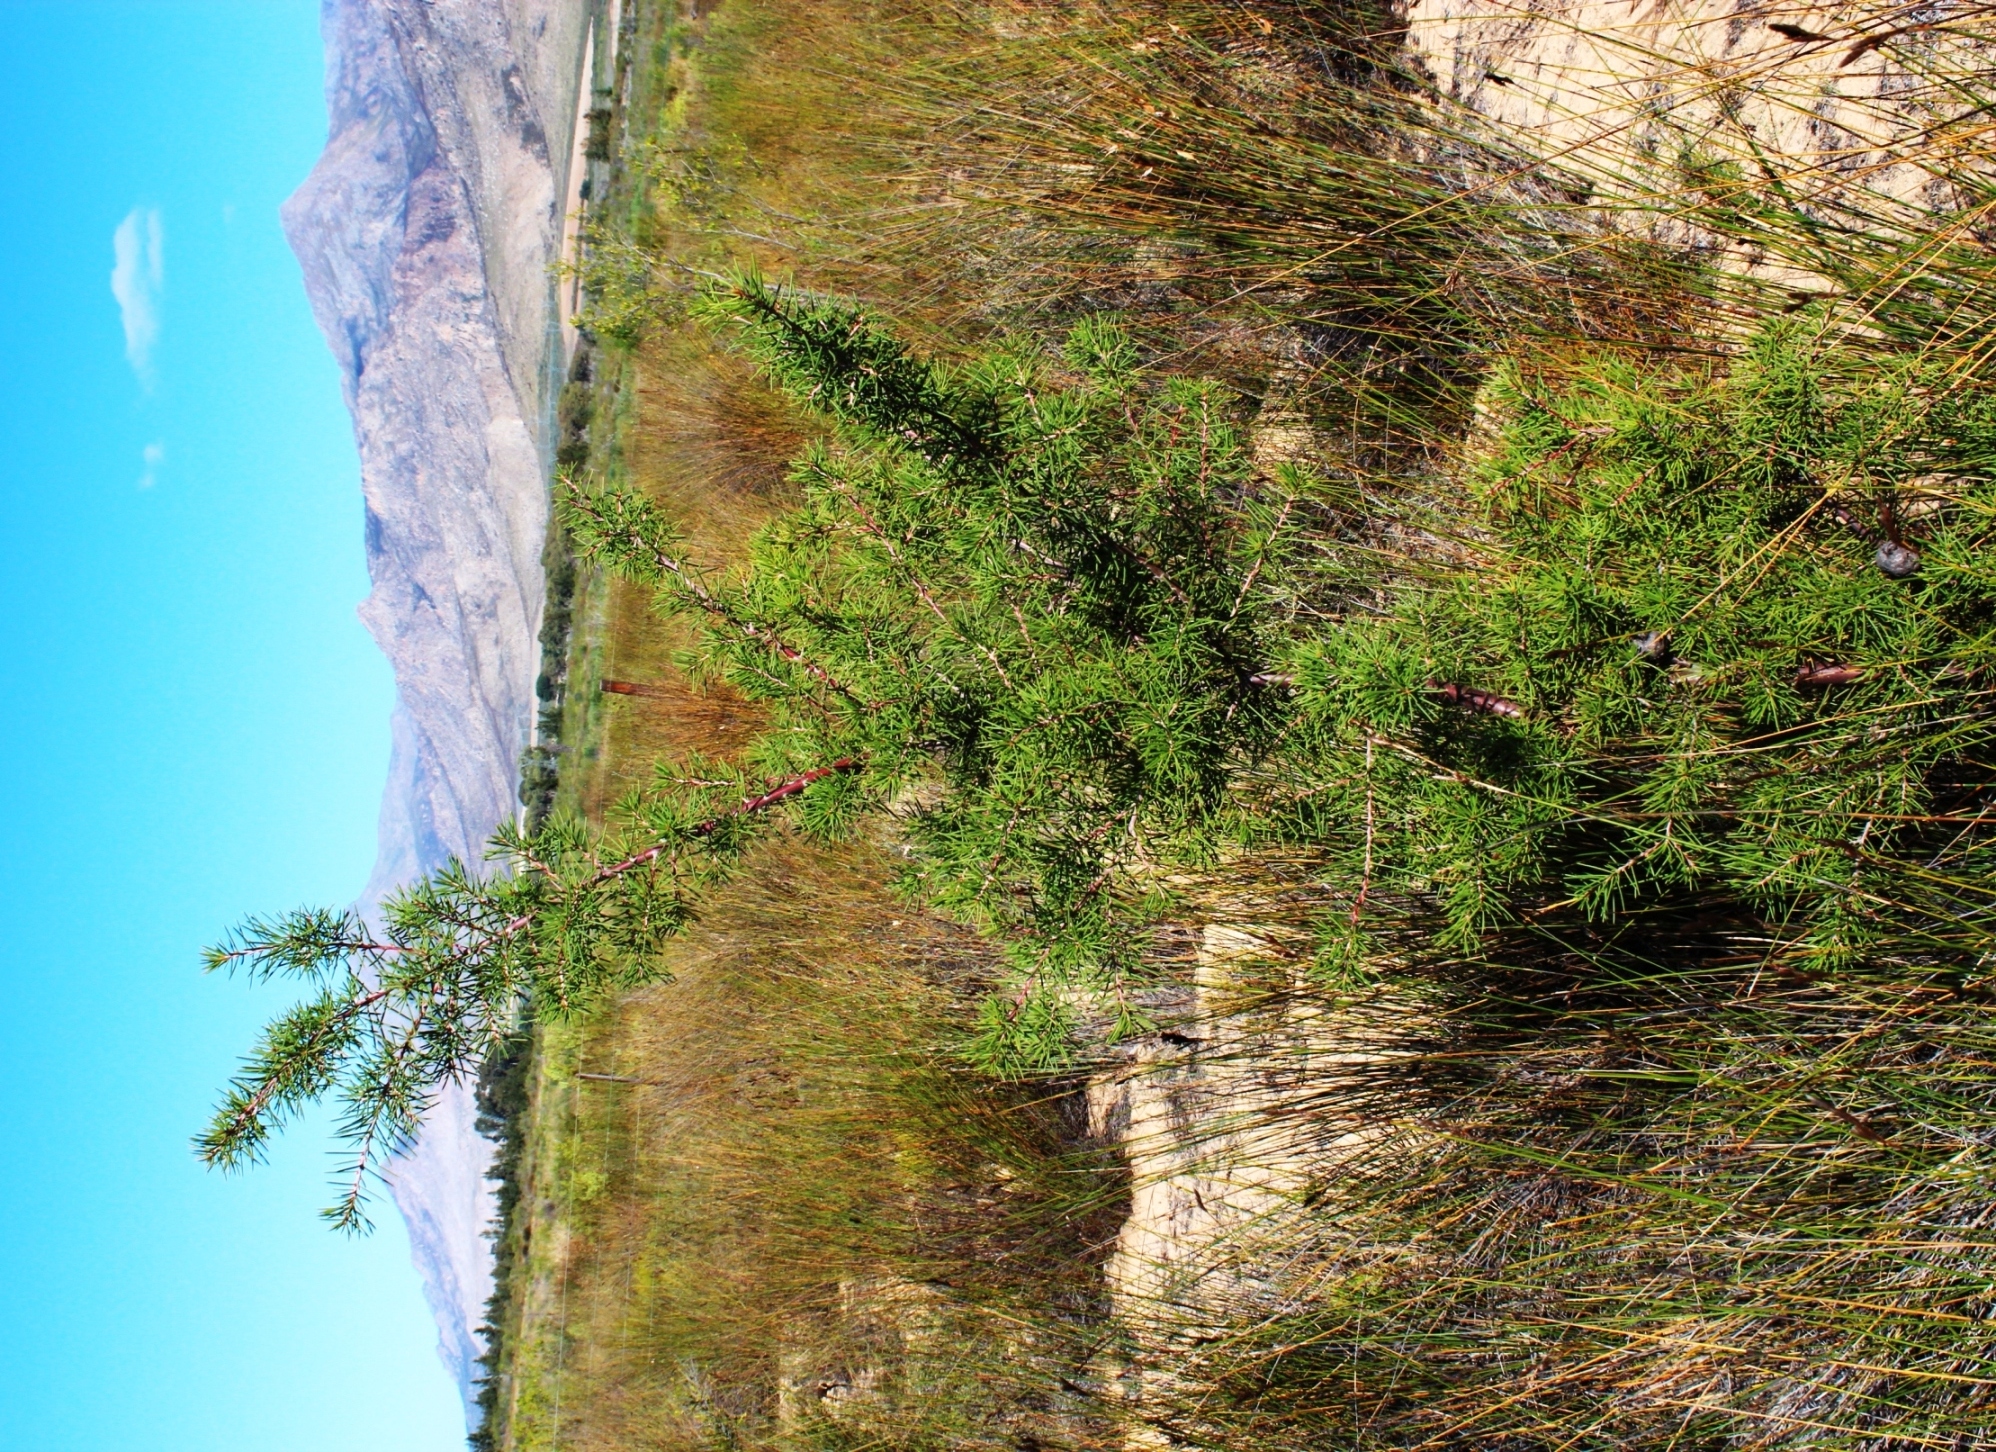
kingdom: Plantae
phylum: Tracheophyta
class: Magnoliopsida
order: Proteales
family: Proteaceae
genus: Hakea
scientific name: Hakea sericea
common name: Needle bush
